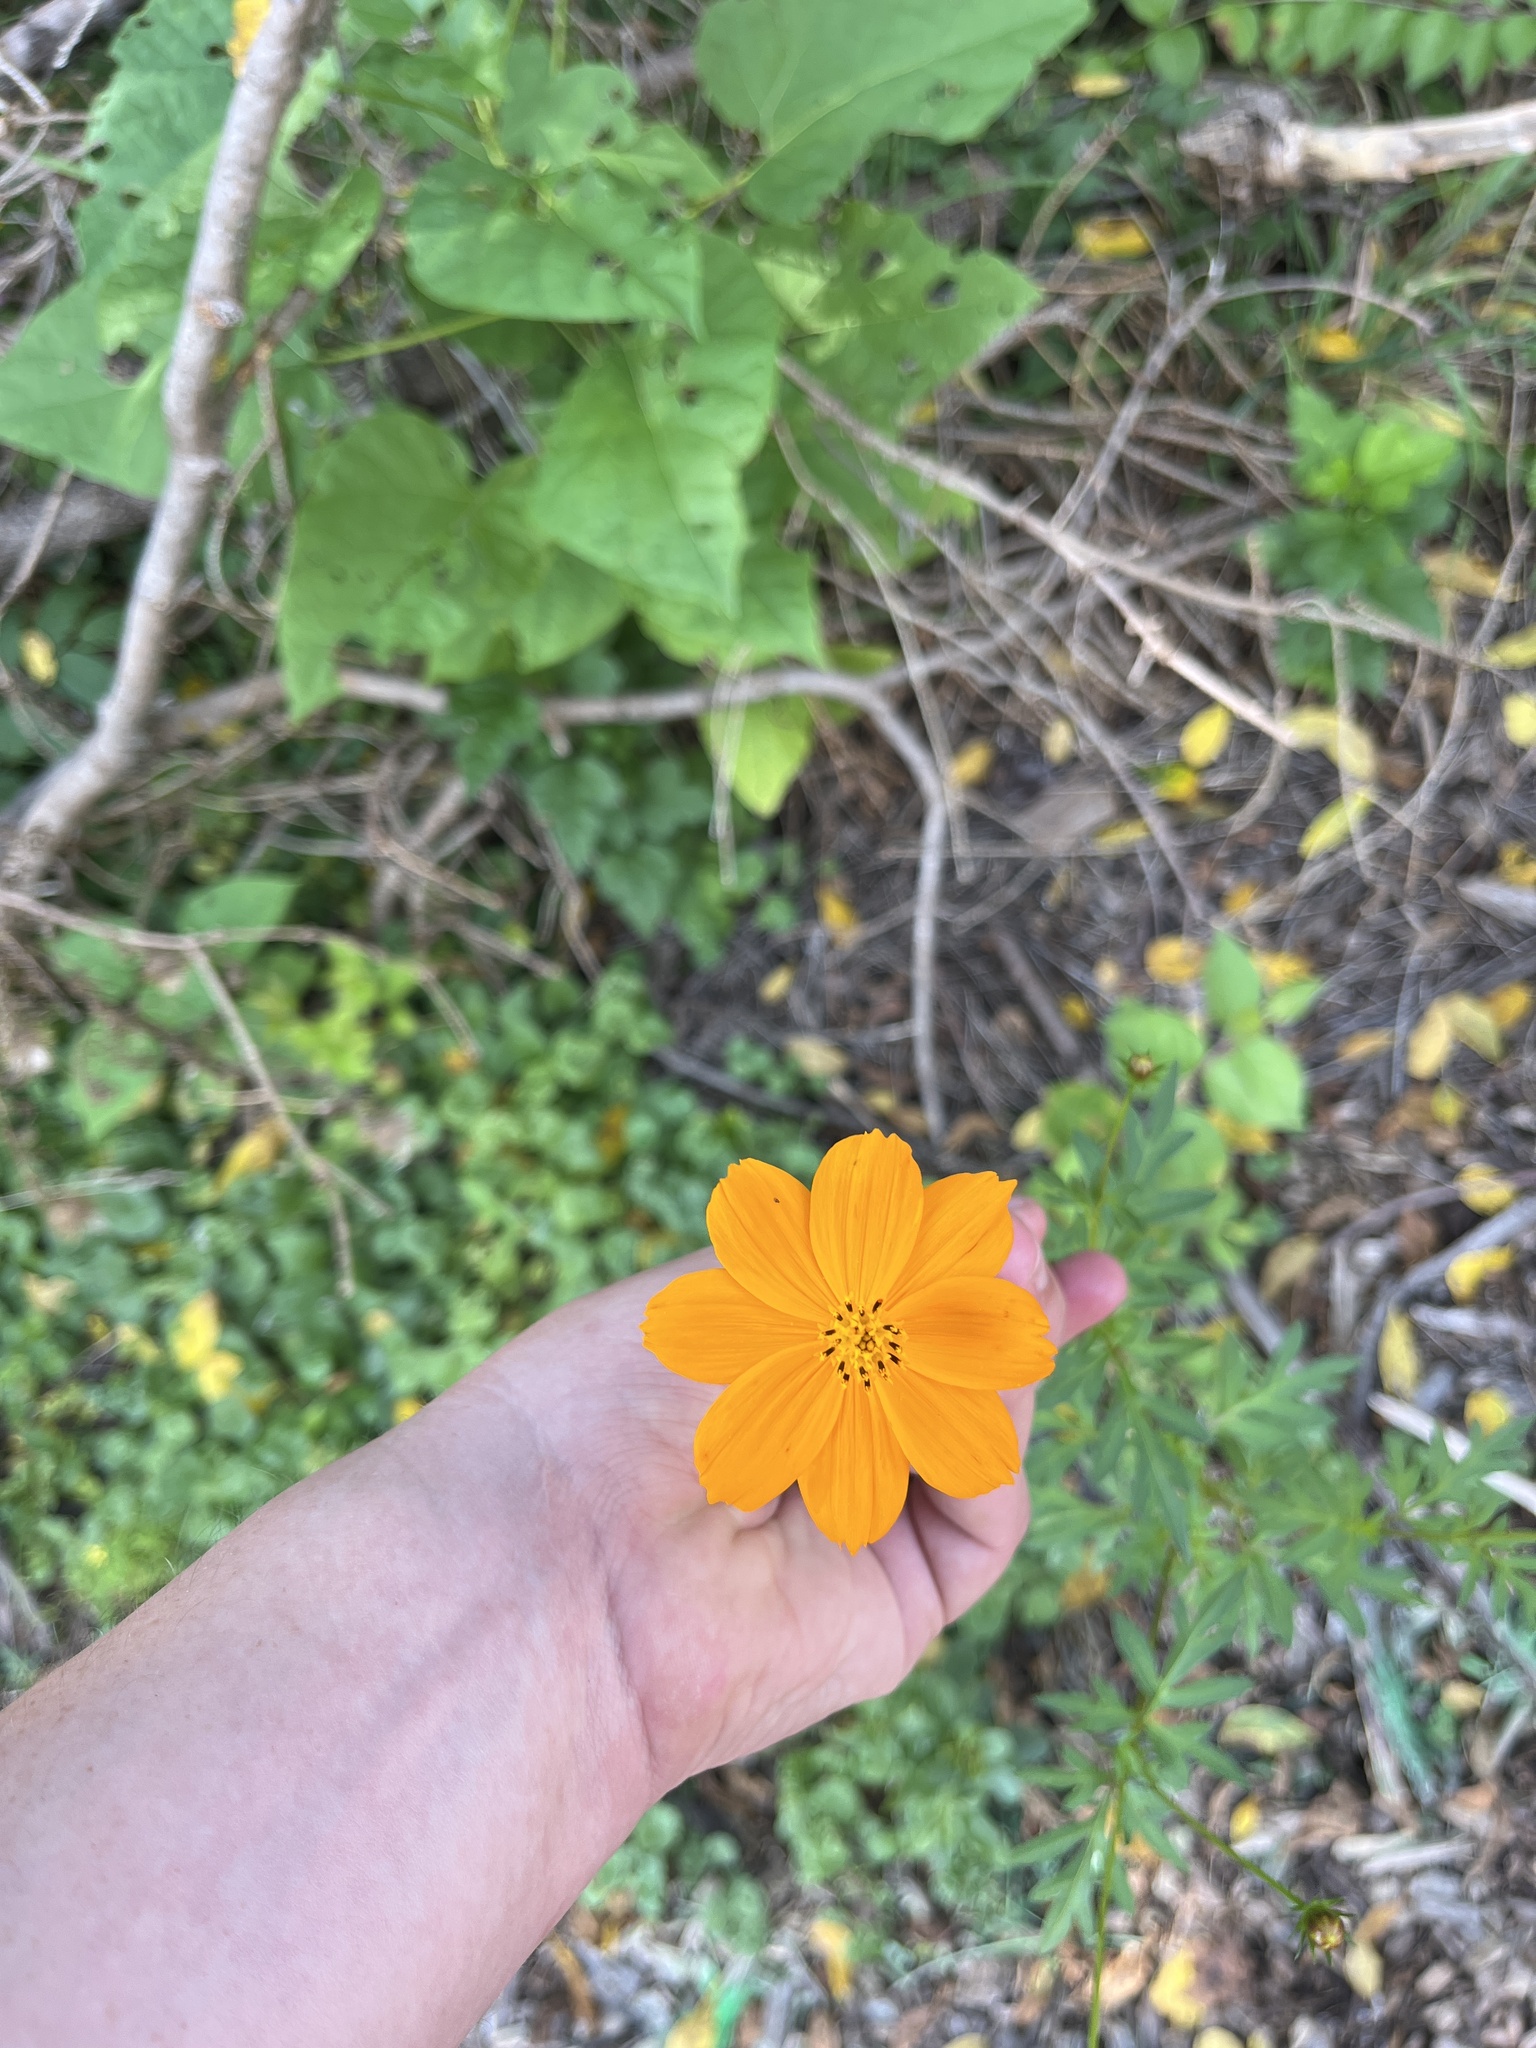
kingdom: Plantae
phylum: Tracheophyta
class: Magnoliopsida
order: Asterales
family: Asteraceae
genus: Cosmos
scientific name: Cosmos sulphureus
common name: Sulphur cosmos
